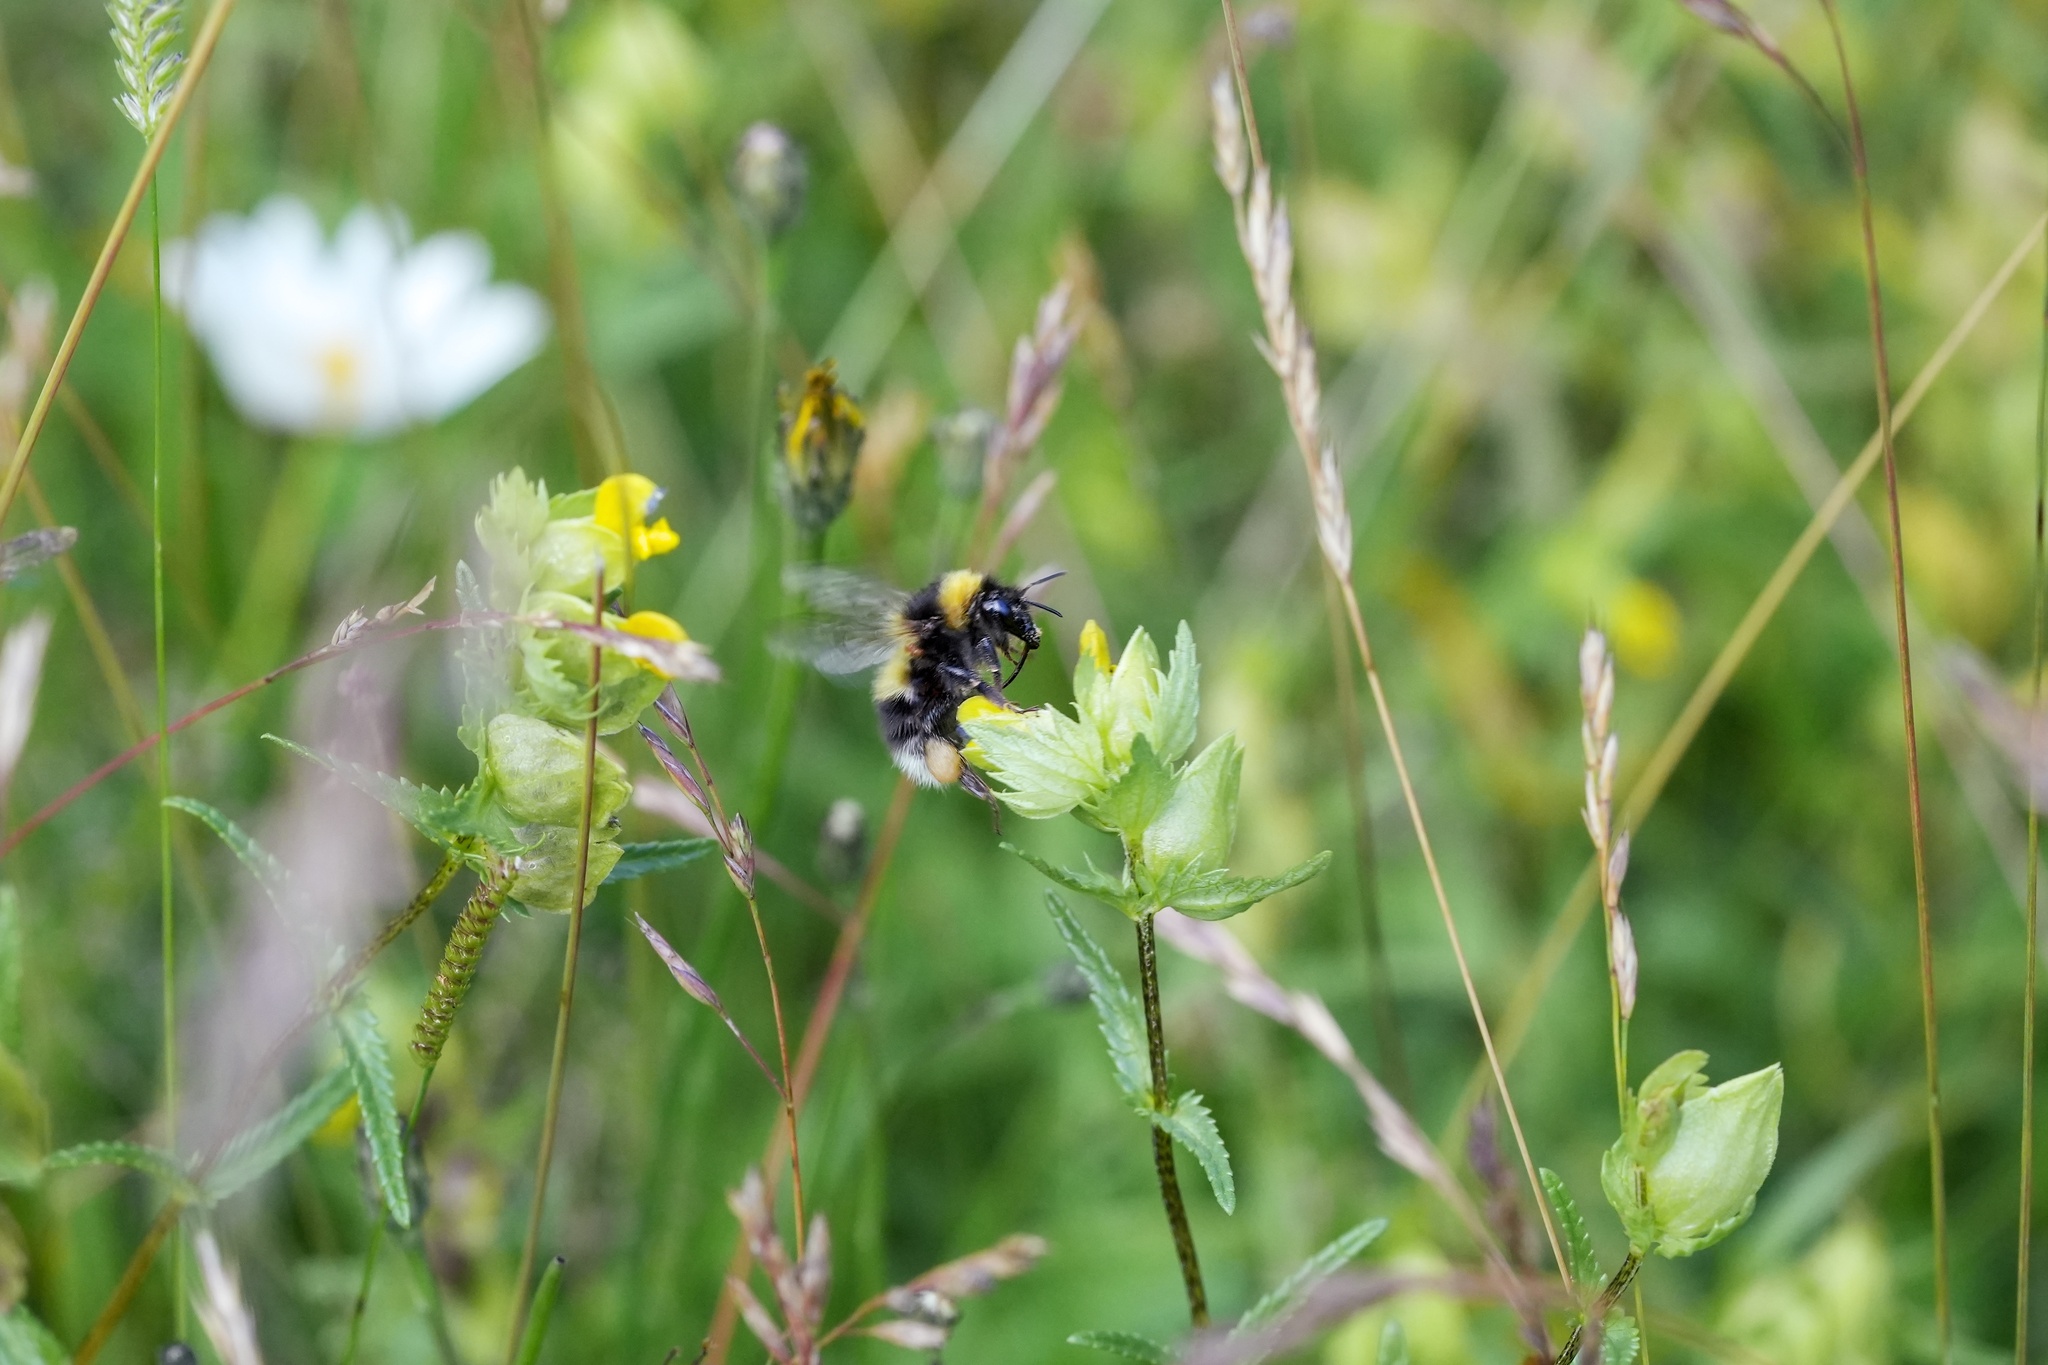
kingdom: Animalia
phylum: Arthropoda
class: Insecta
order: Hymenoptera
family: Apidae
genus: Bombus
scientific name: Bombus hortorum
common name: Garden bumblebee
